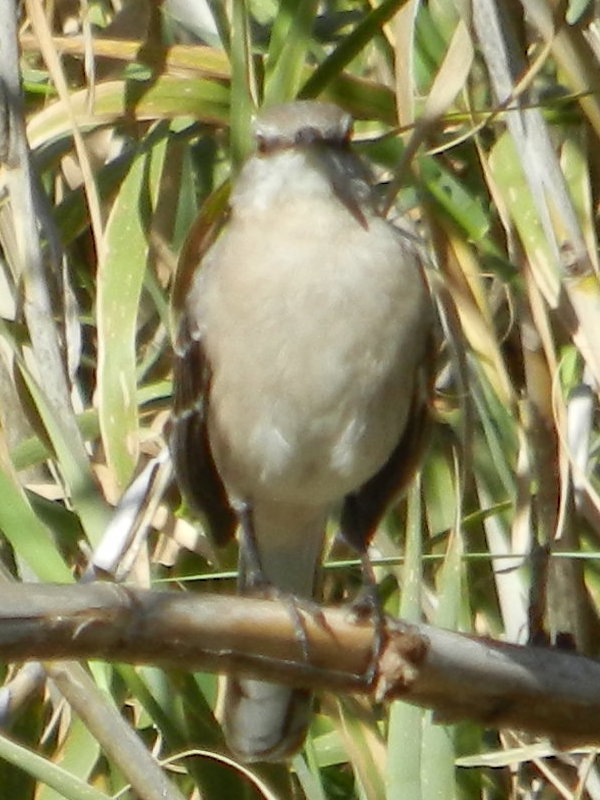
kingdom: Animalia
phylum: Chordata
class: Aves
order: Passeriformes
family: Mimidae
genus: Mimus
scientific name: Mimus polyglottos
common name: Northern mockingbird
